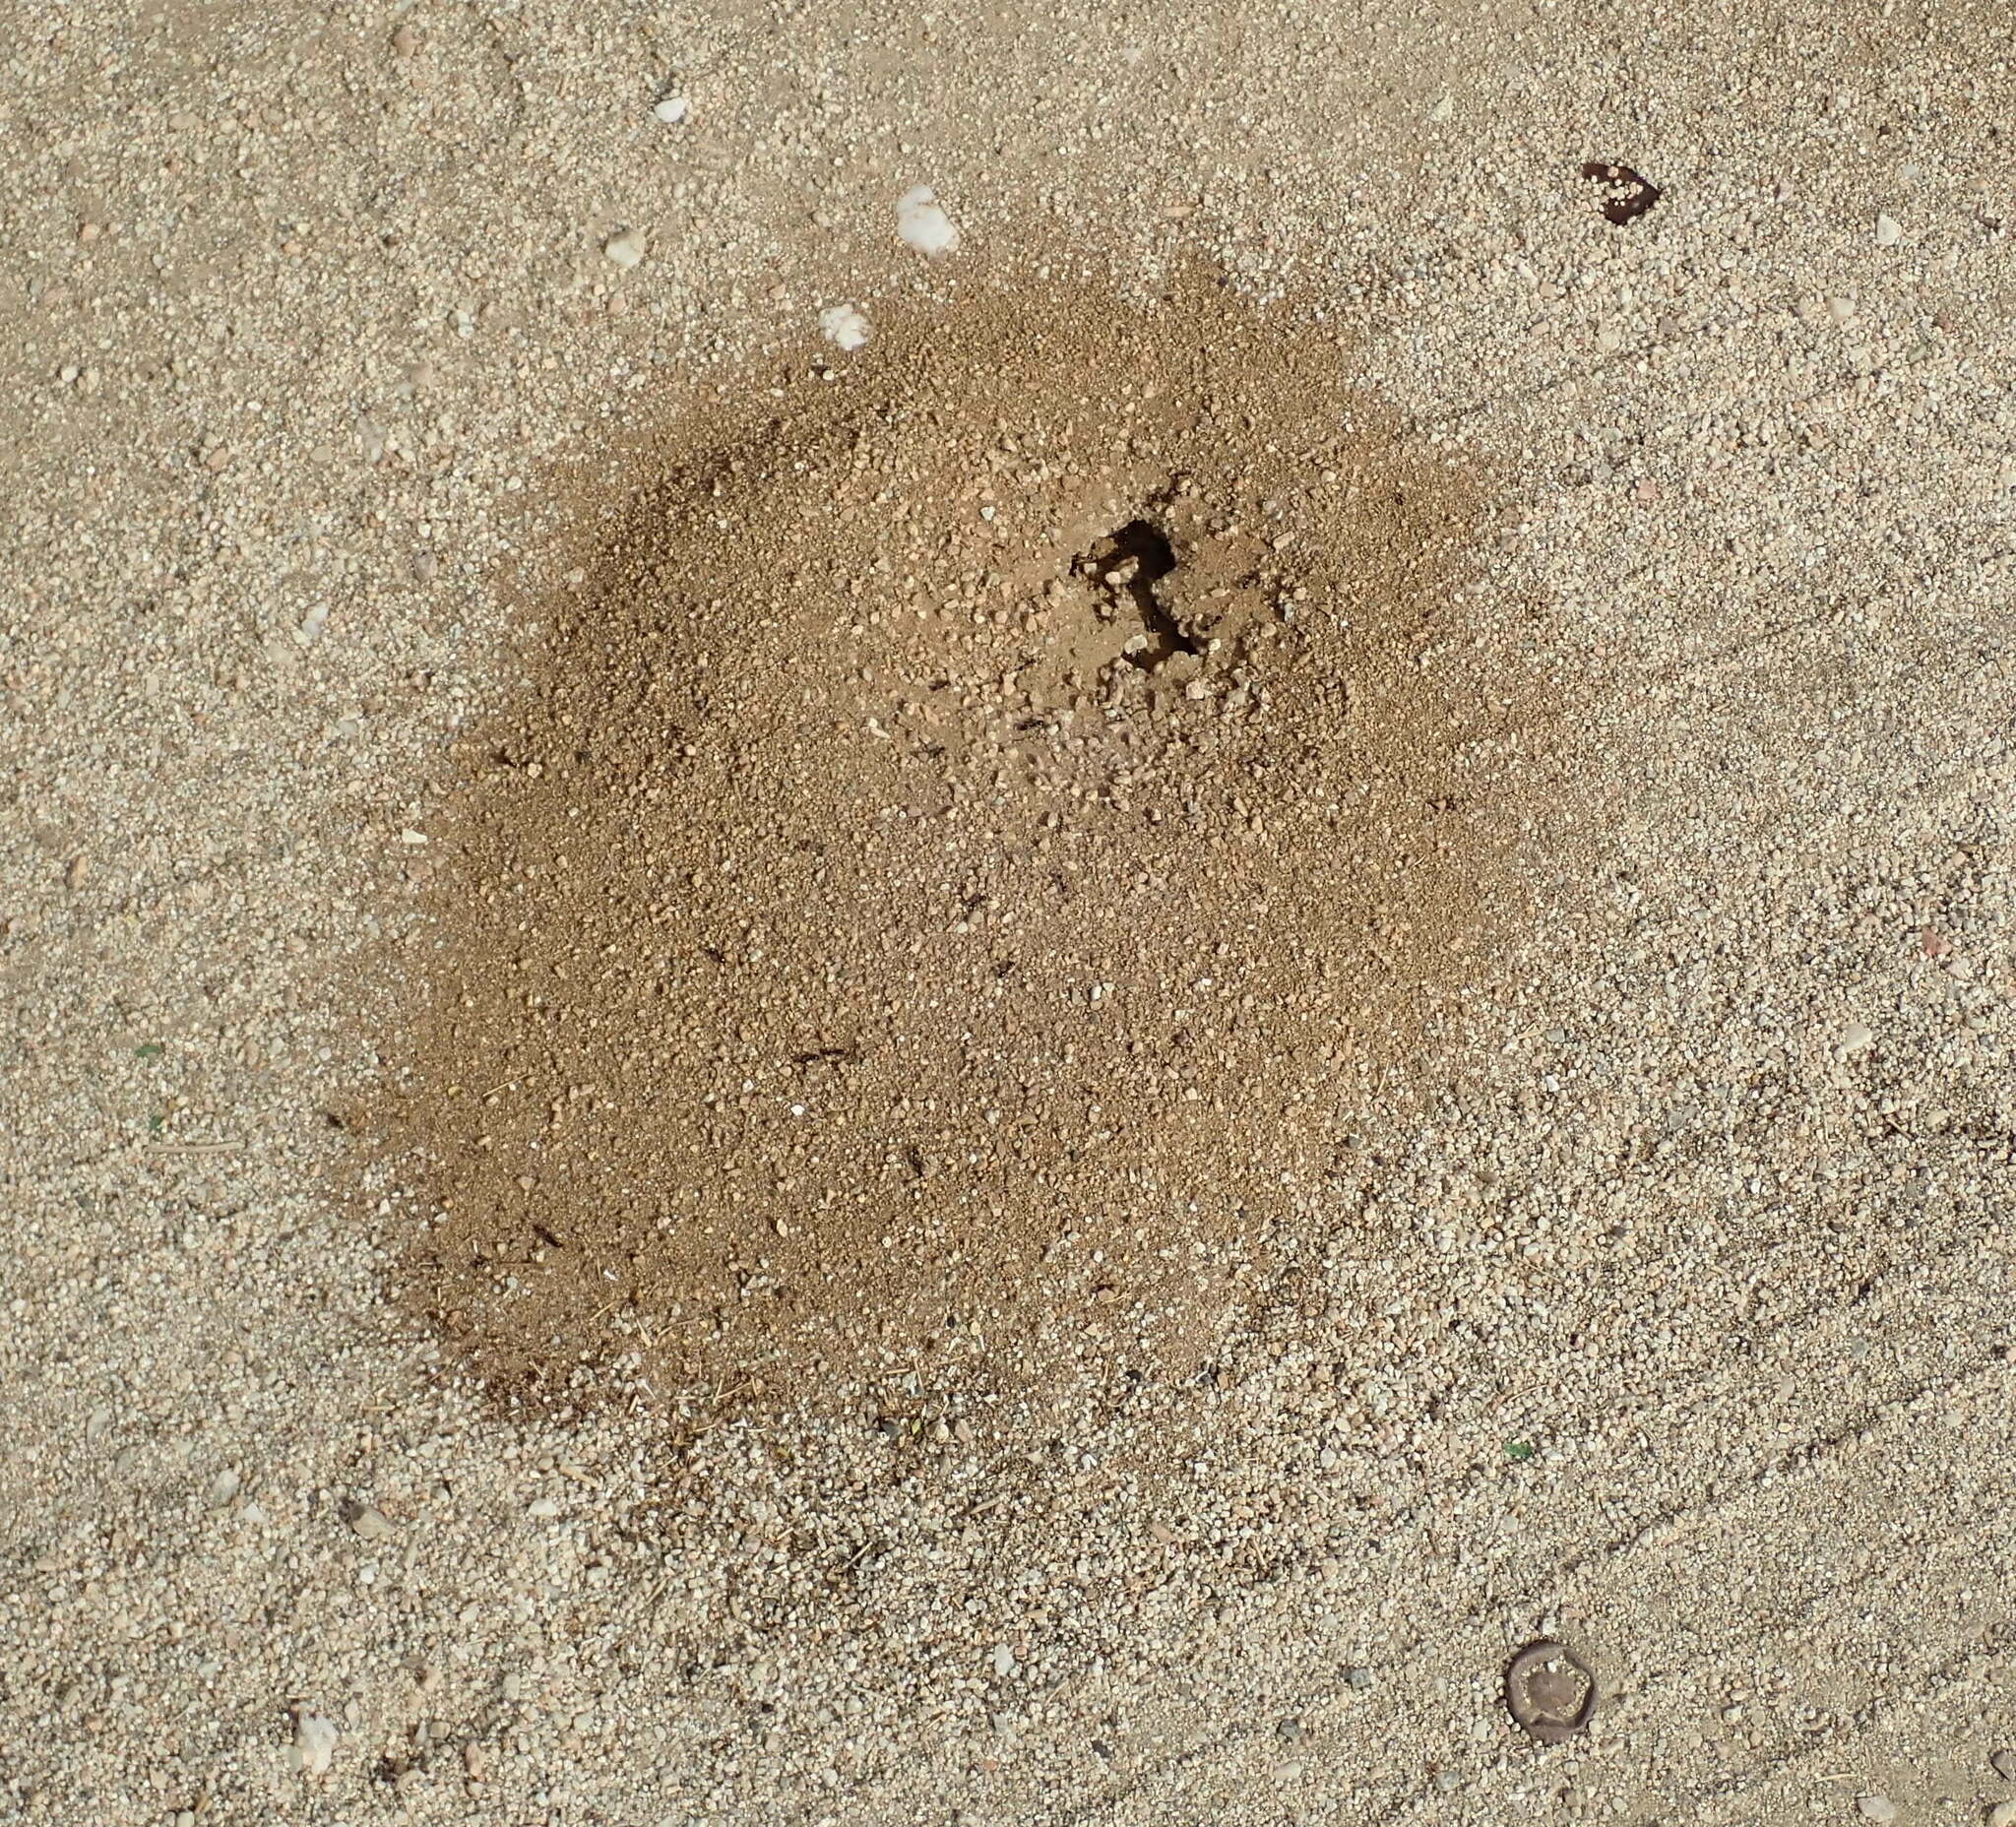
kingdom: Animalia
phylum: Arthropoda
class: Insecta
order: Hymenoptera
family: Formicidae
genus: Messor
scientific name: Messor pergandei
